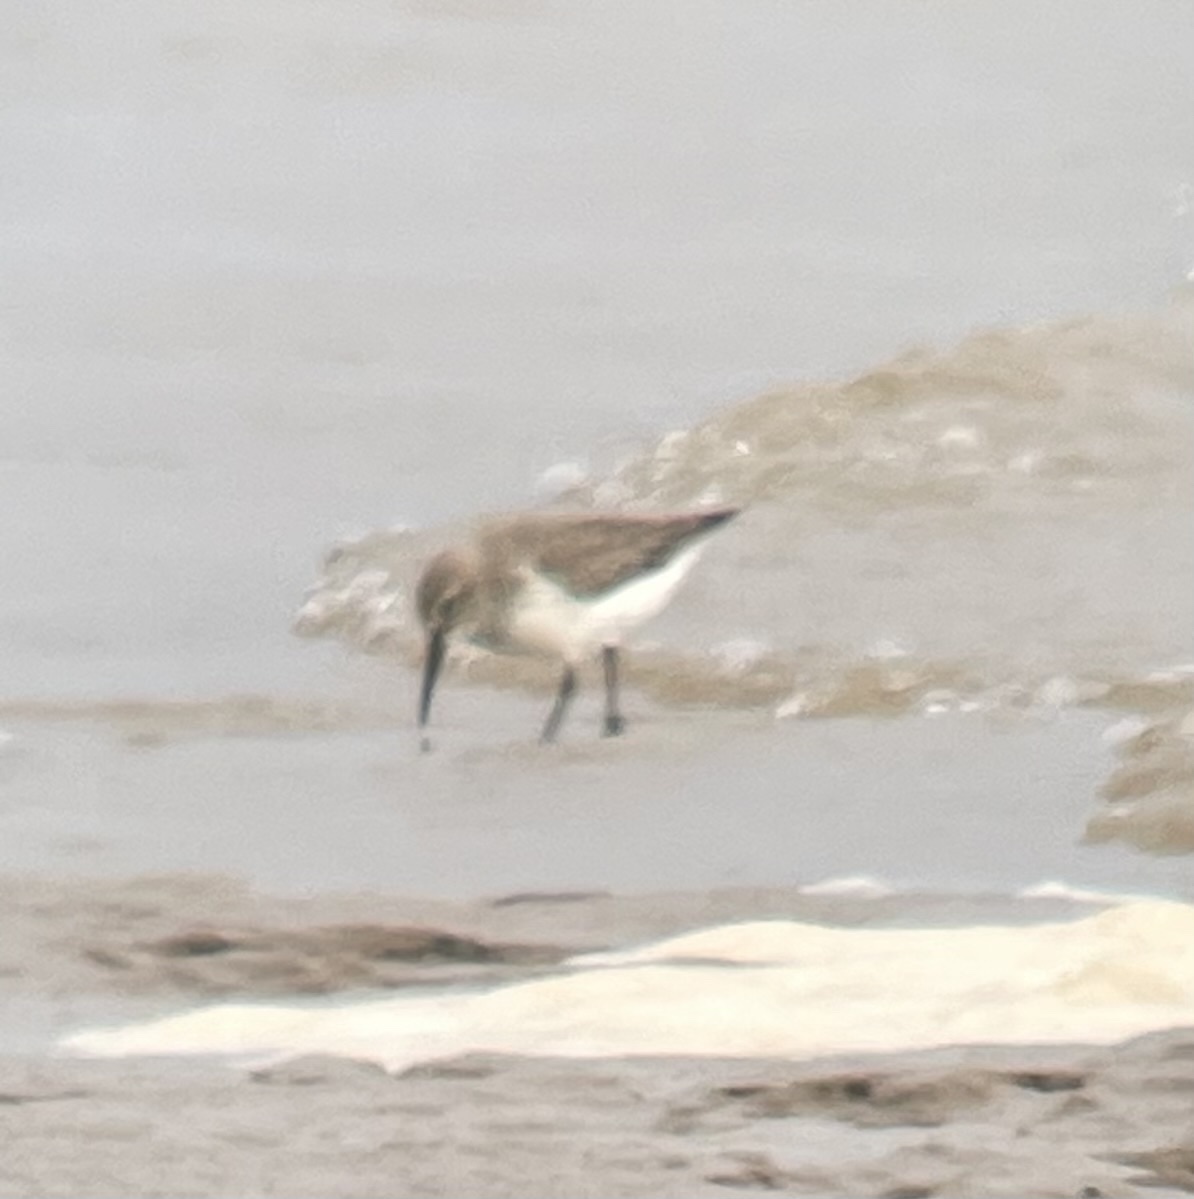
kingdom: Animalia
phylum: Chordata
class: Aves
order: Charadriiformes
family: Scolopacidae
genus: Calidris
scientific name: Calidris alpina
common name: Dunlin
